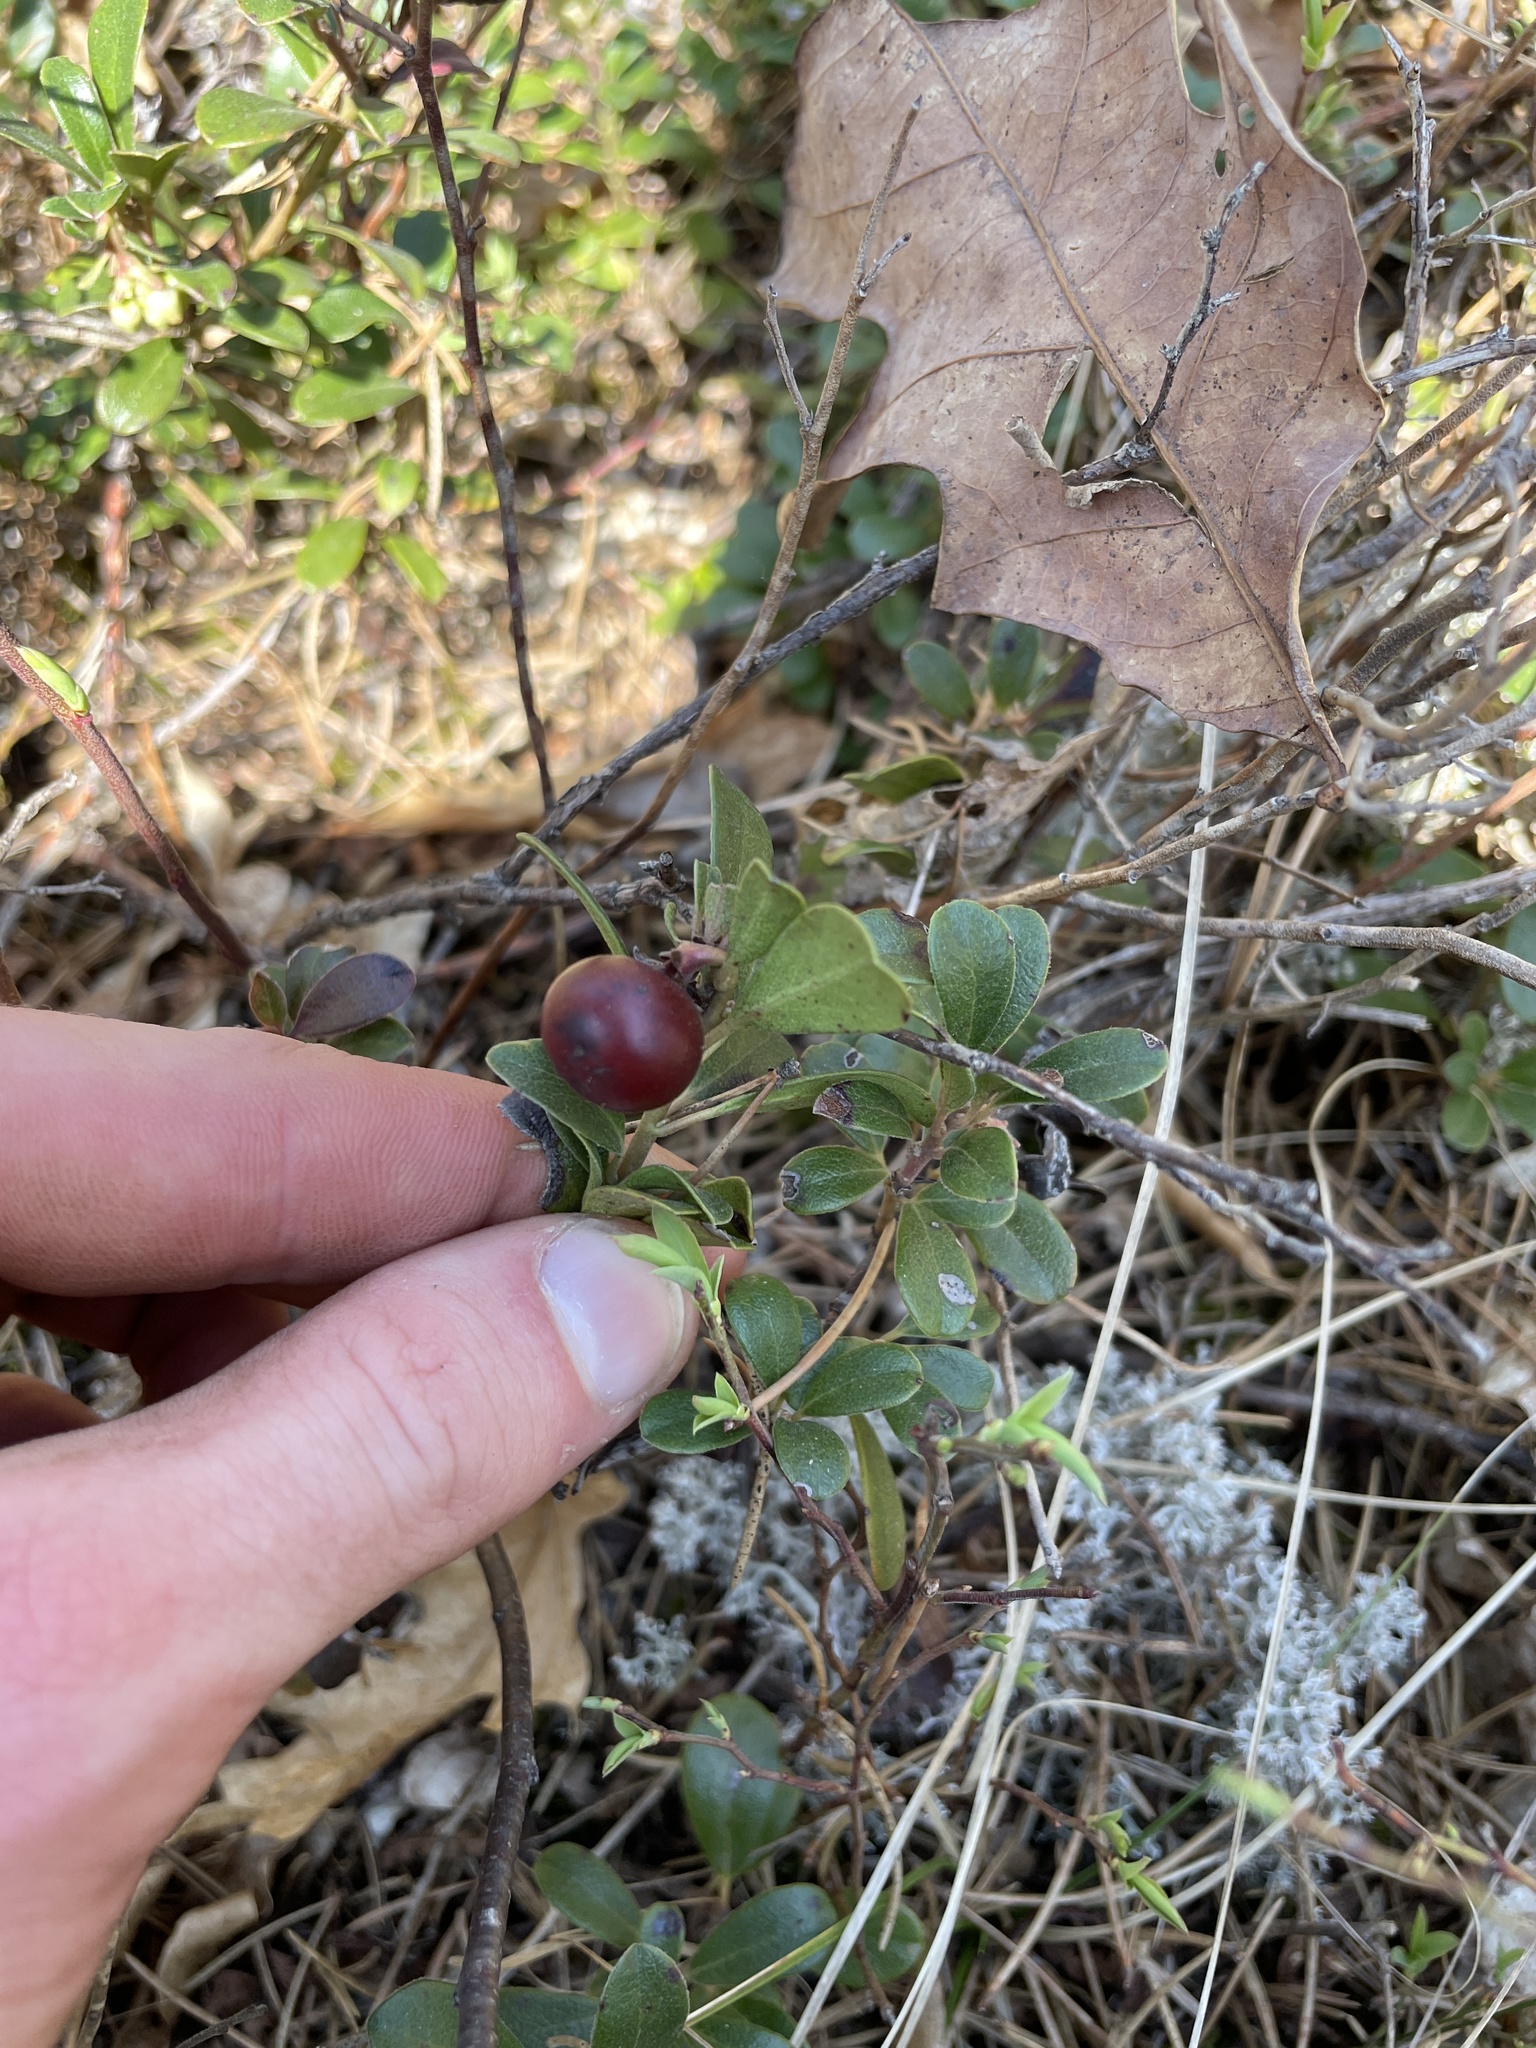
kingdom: Plantae
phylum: Tracheophyta
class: Magnoliopsida
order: Ericales
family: Ericaceae
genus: Arctostaphylos
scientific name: Arctostaphylos uva-ursi
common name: Bearberry
